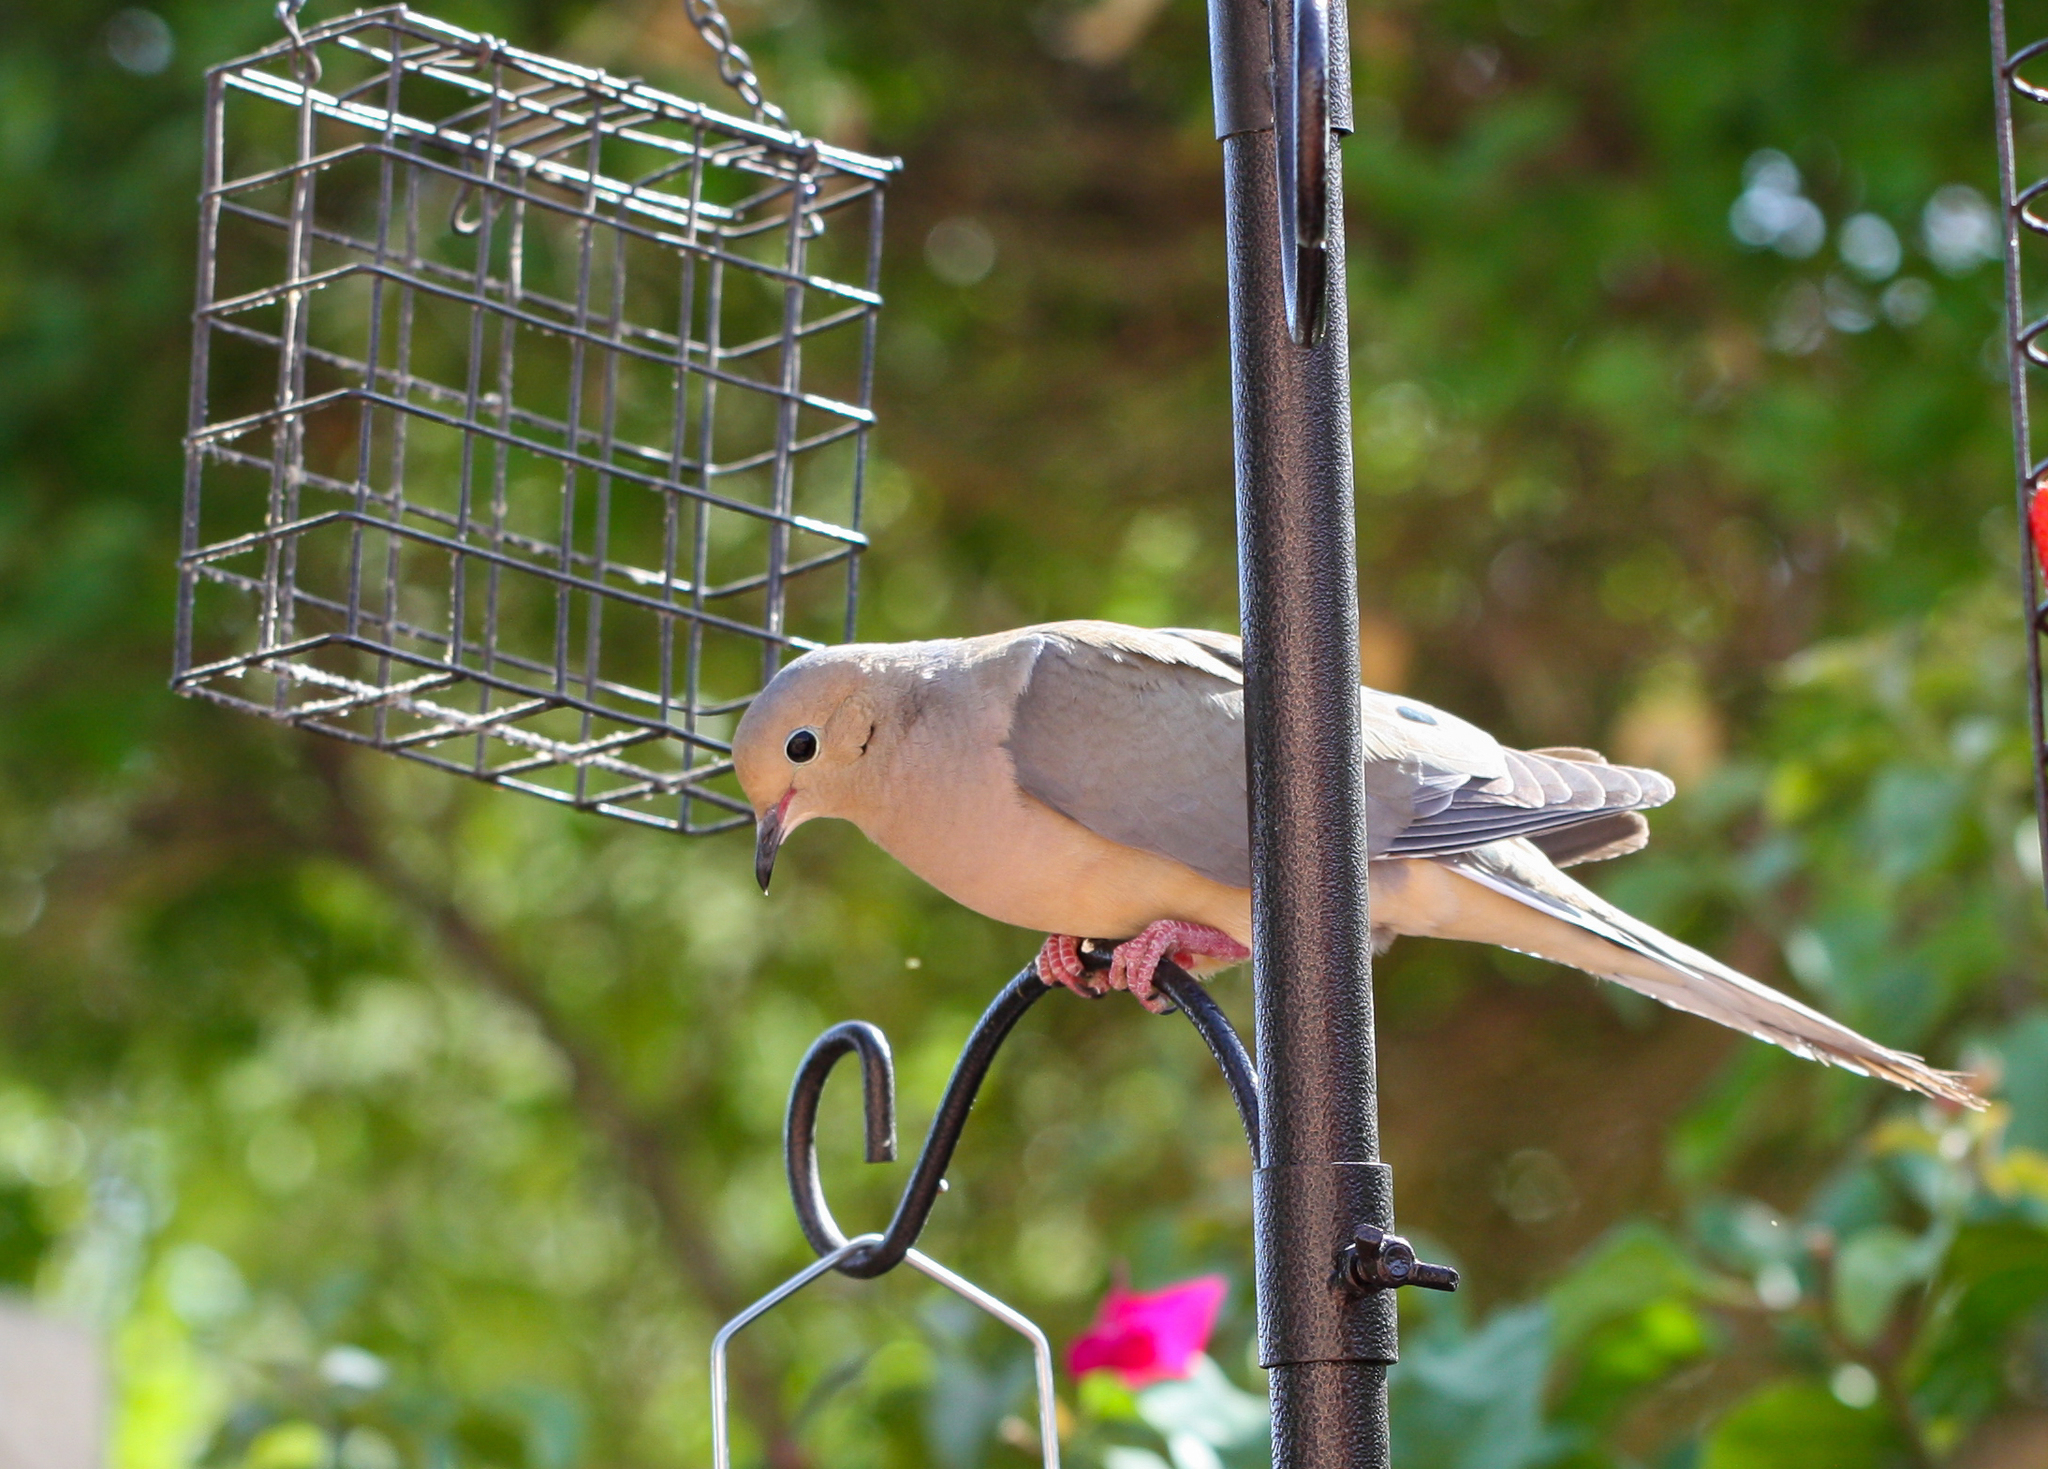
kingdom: Animalia
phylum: Chordata
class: Aves
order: Columbiformes
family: Columbidae
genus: Zenaida
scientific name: Zenaida macroura
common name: Mourning dove
